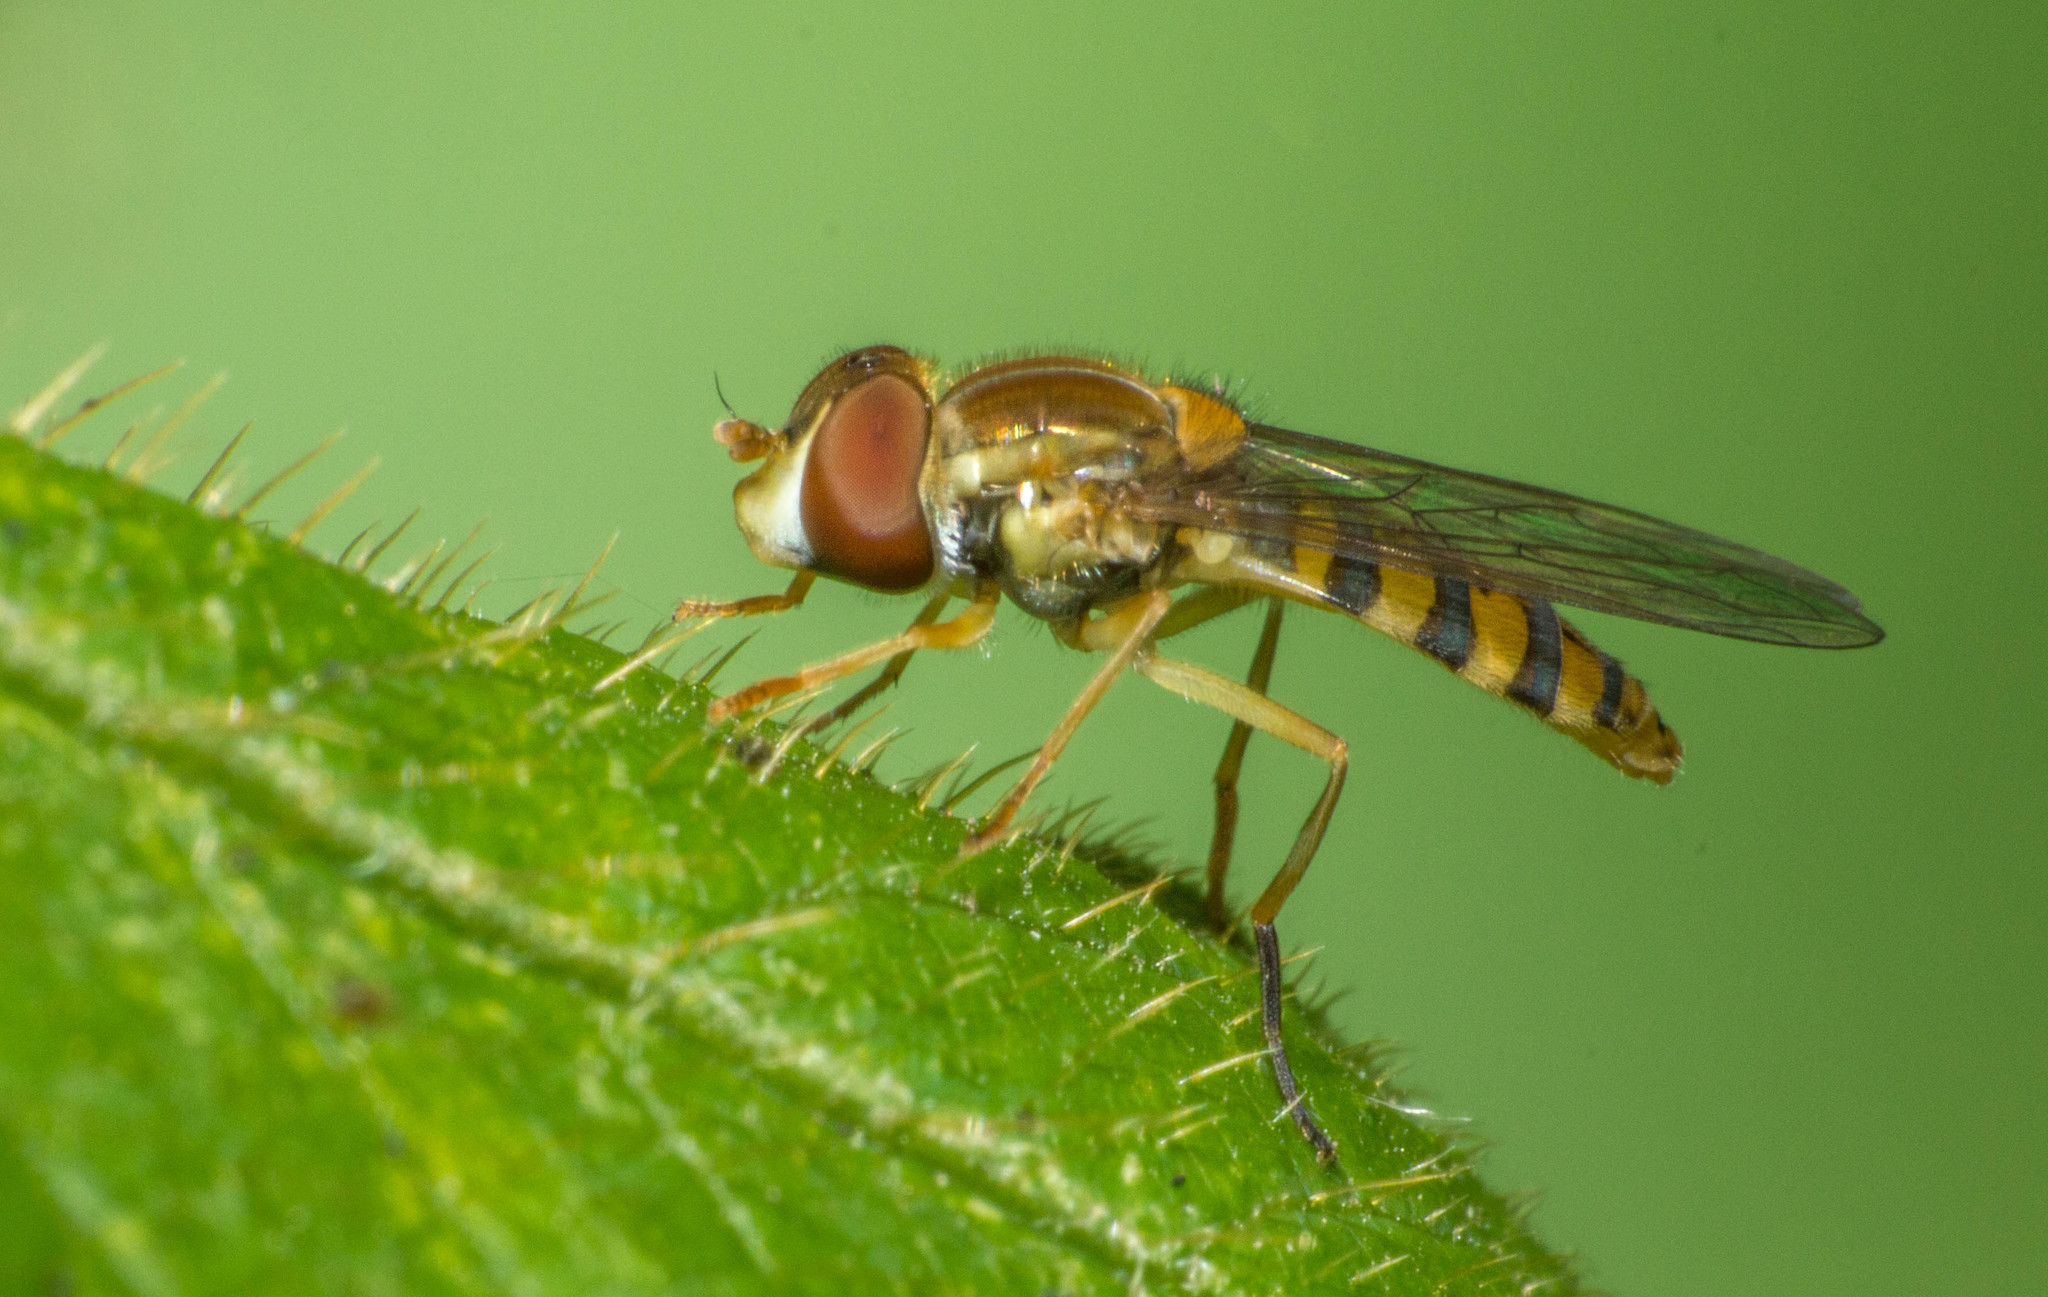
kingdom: Animalia
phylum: Arthropoda
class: Insecta
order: Diptera
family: Syrphidae
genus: Toxomerus
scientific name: Toxomerus
